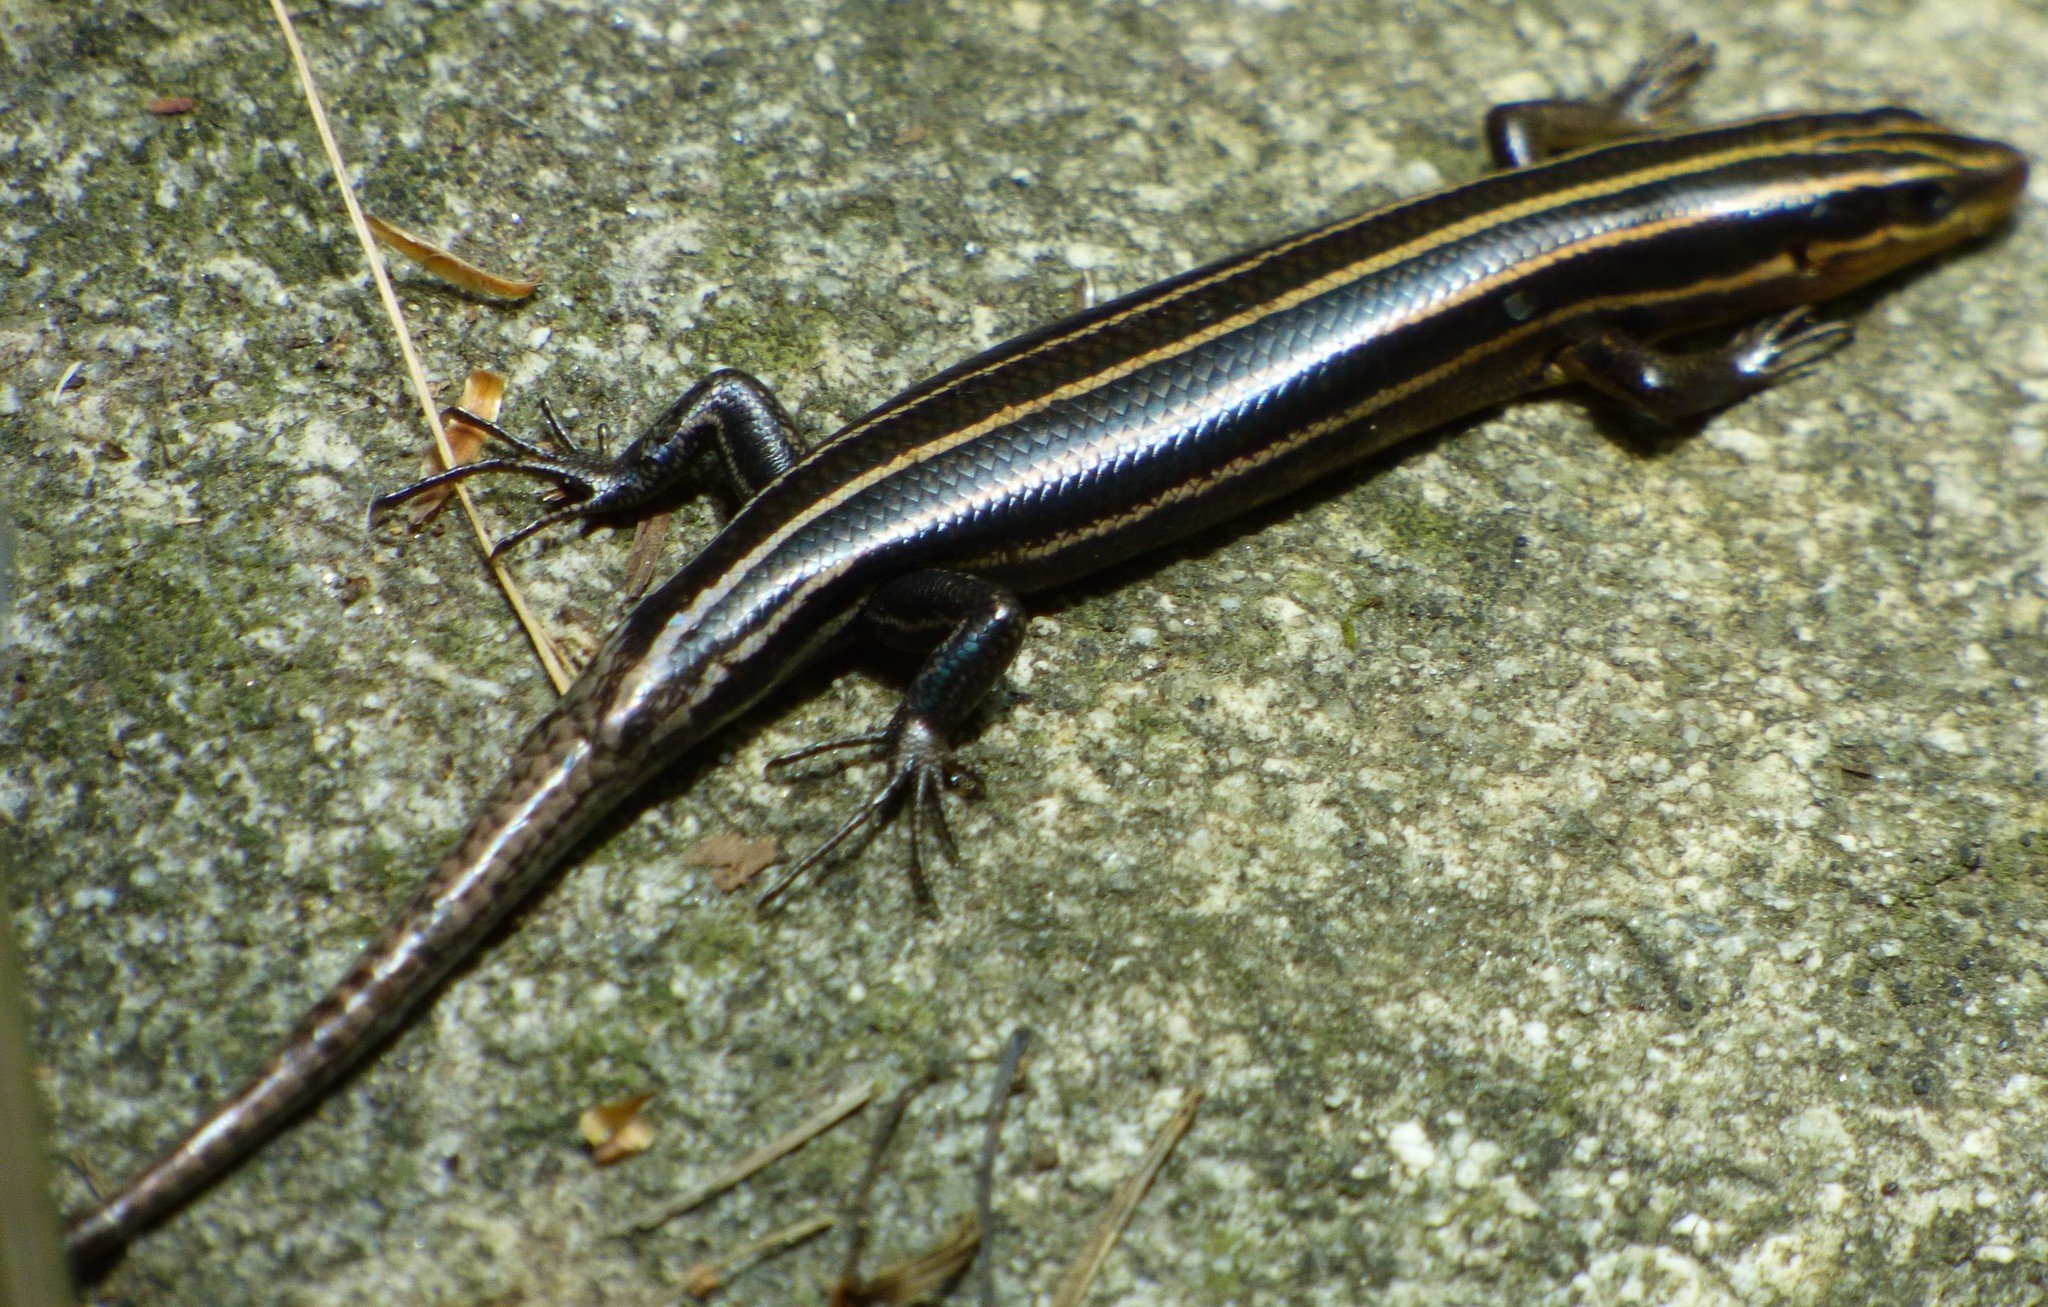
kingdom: Animalia
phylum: Chordata
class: Squamata
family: Scincidae
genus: Plestiodon
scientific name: Plestiodon fasciatus
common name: Five-lined skink
